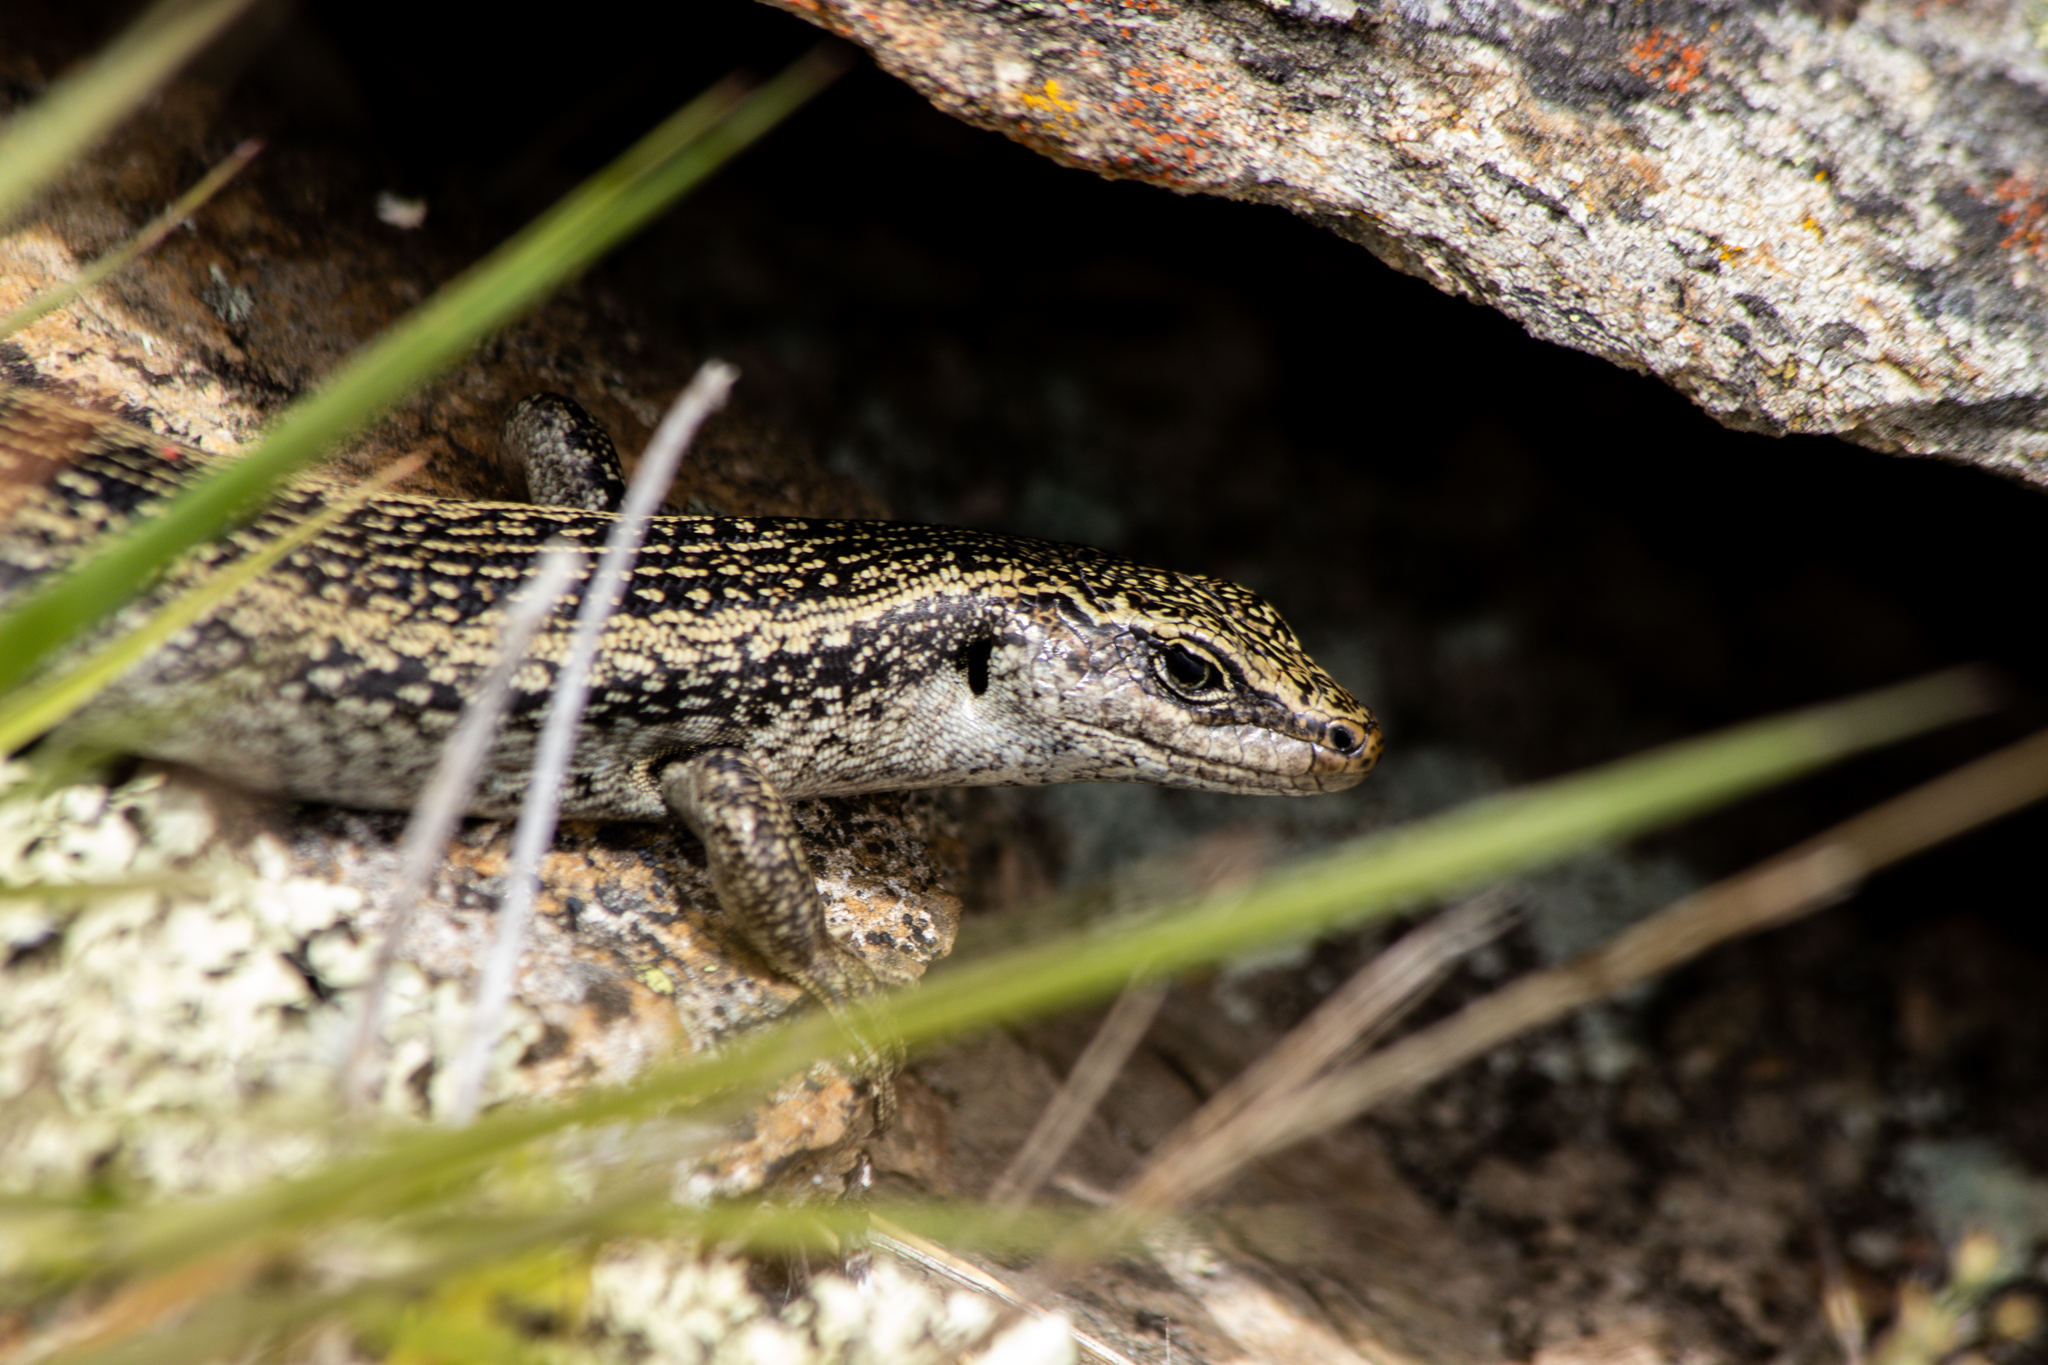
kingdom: Animalia
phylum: Chordata
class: Squamata
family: Scincidae
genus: Oligosoma
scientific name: Oligosoma grande
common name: Grand skink
